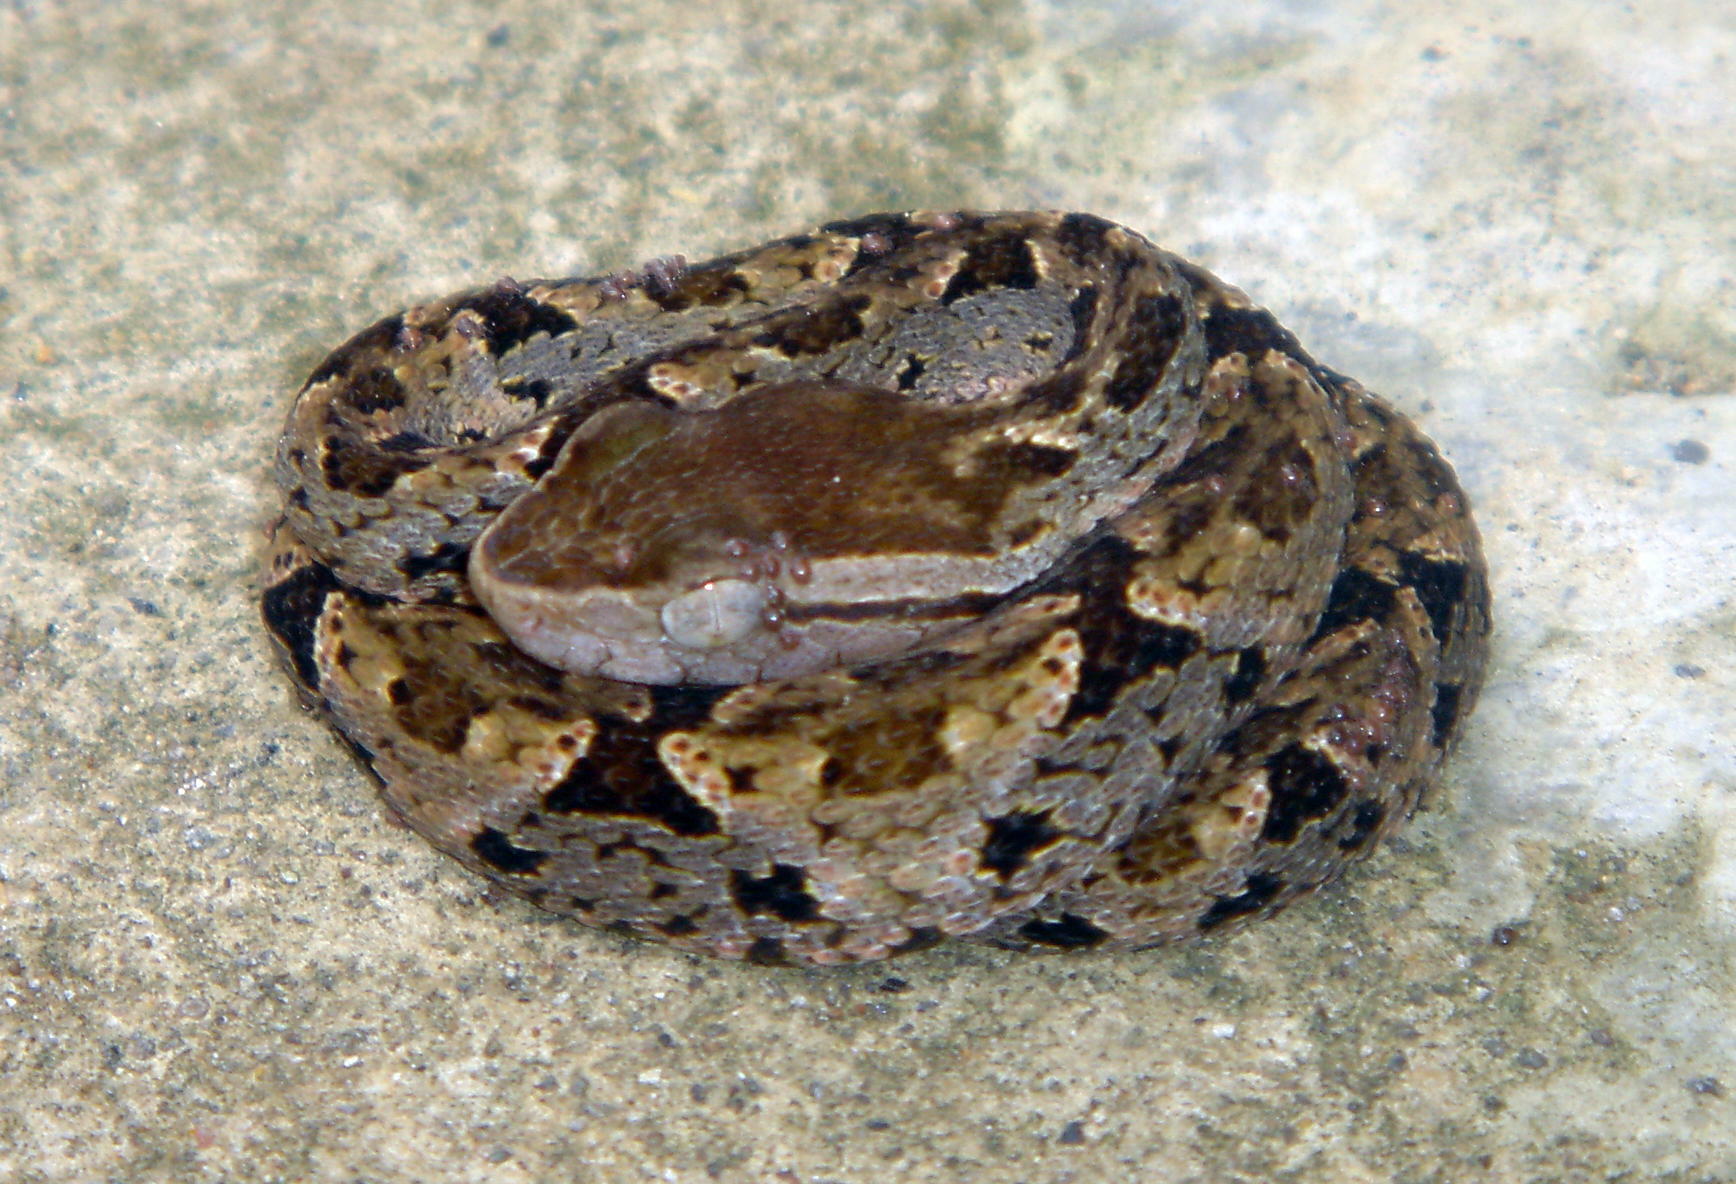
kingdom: Animalia
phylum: Chordata
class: Squamata
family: Viperidae
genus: Bothrops
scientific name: Bothrops asper
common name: Terciopelo
